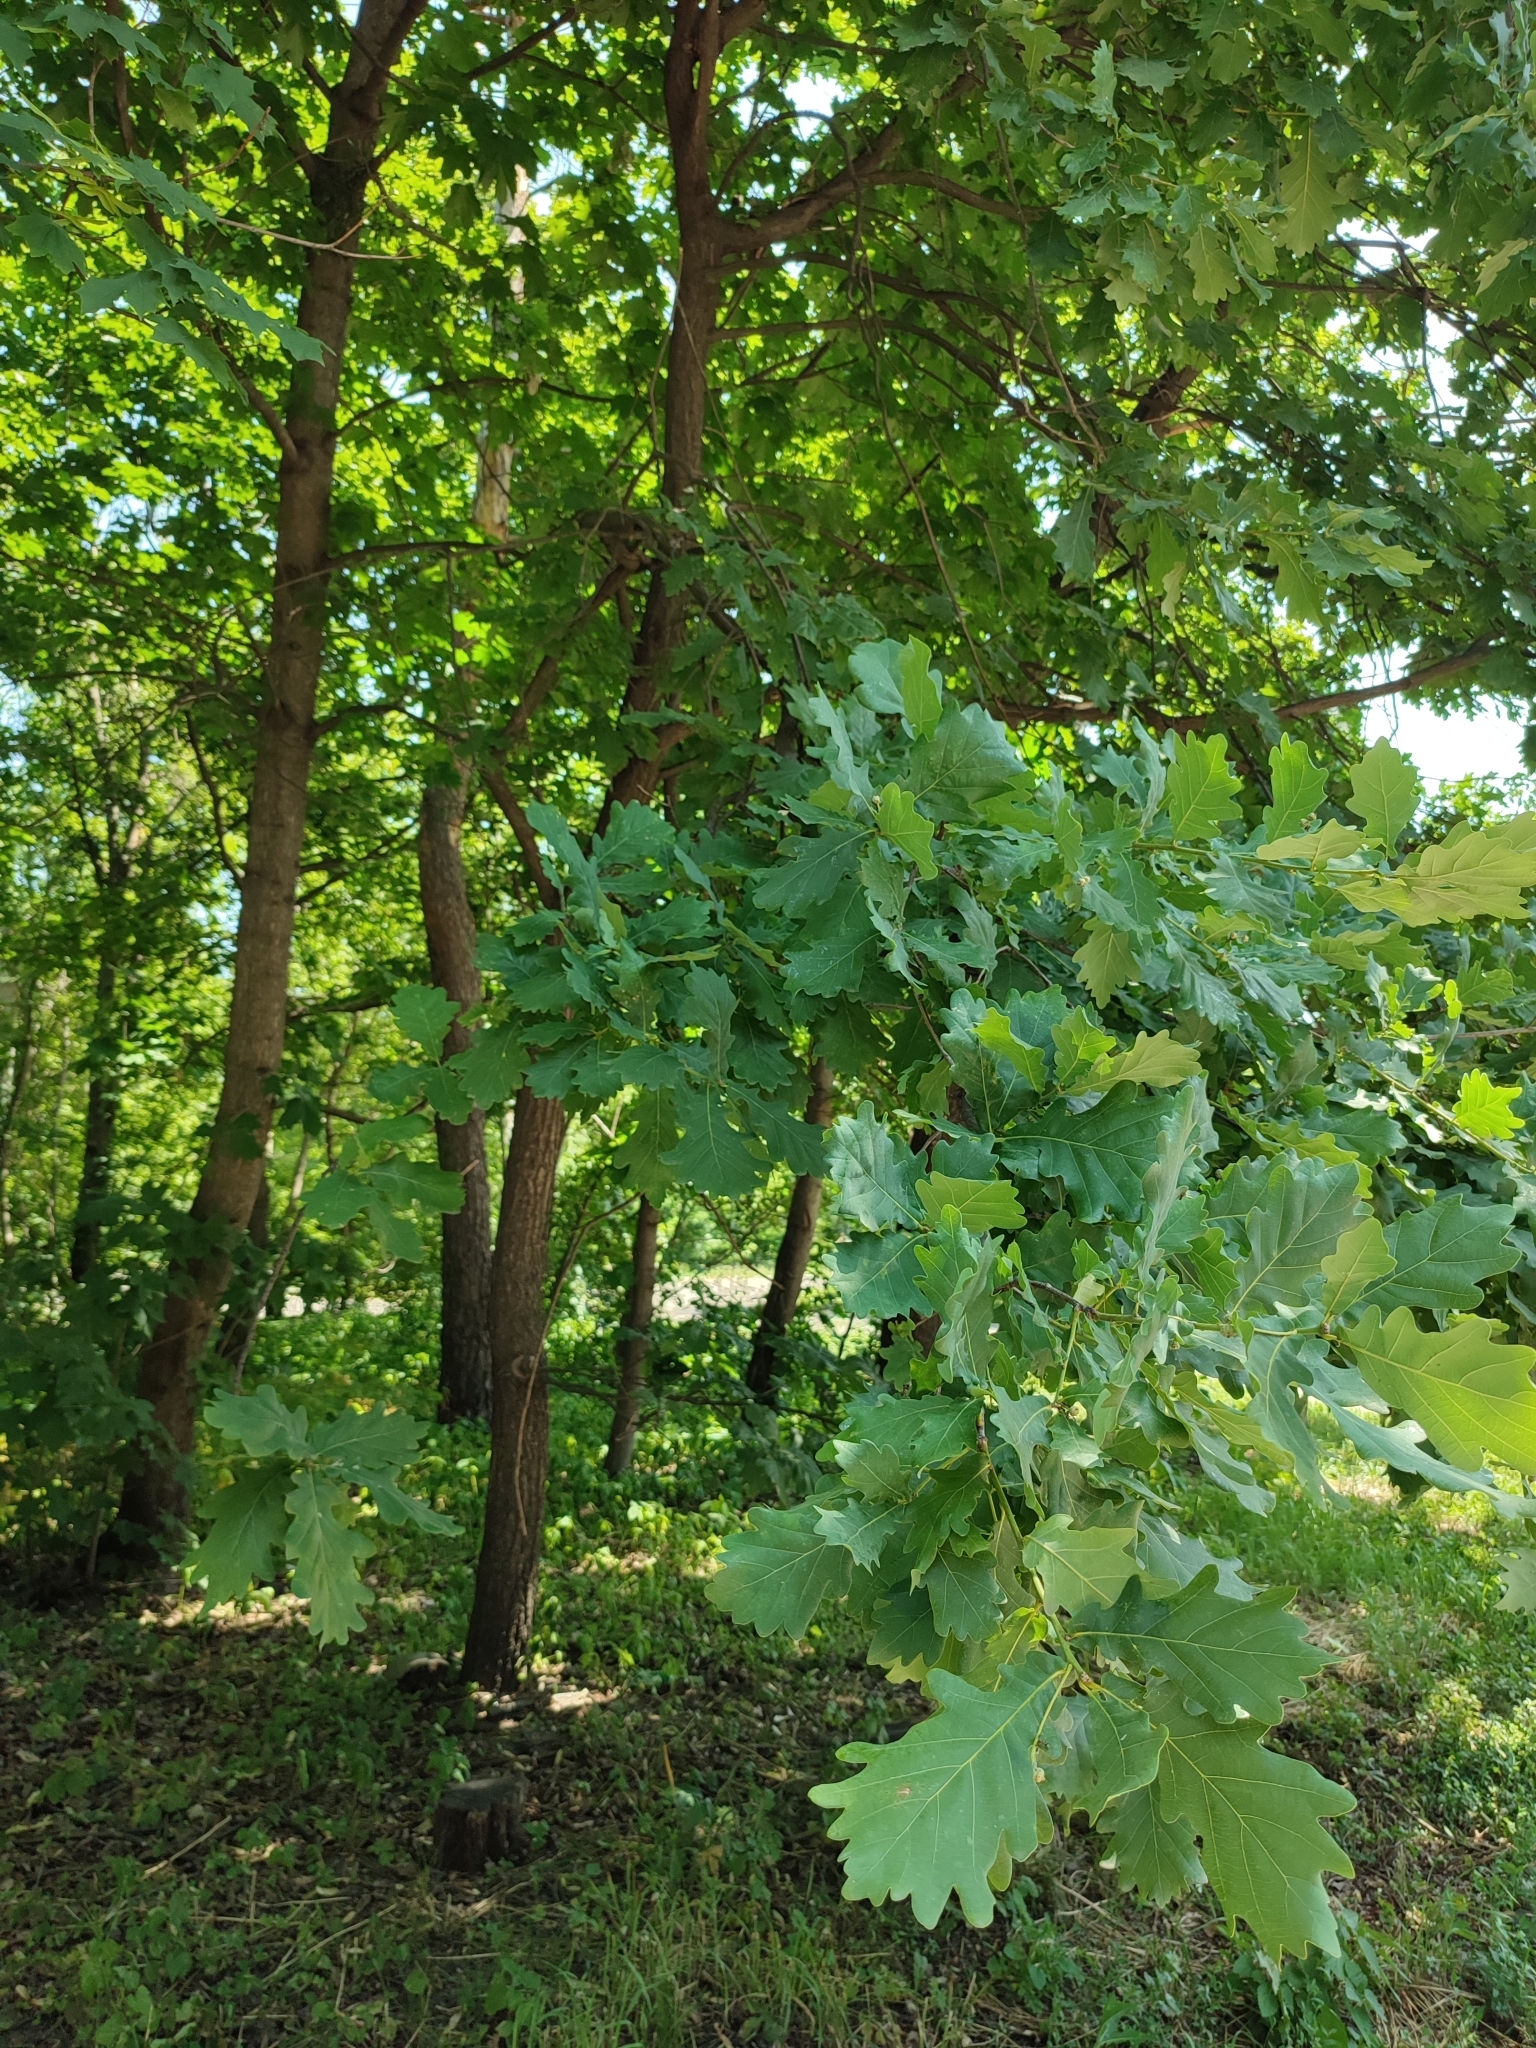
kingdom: Plantae
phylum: Tracheophyta
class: Magnoliopsida
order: Fagales
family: Fagaceae
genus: Quercus
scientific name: Quercus robur
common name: Pedunculate oak
